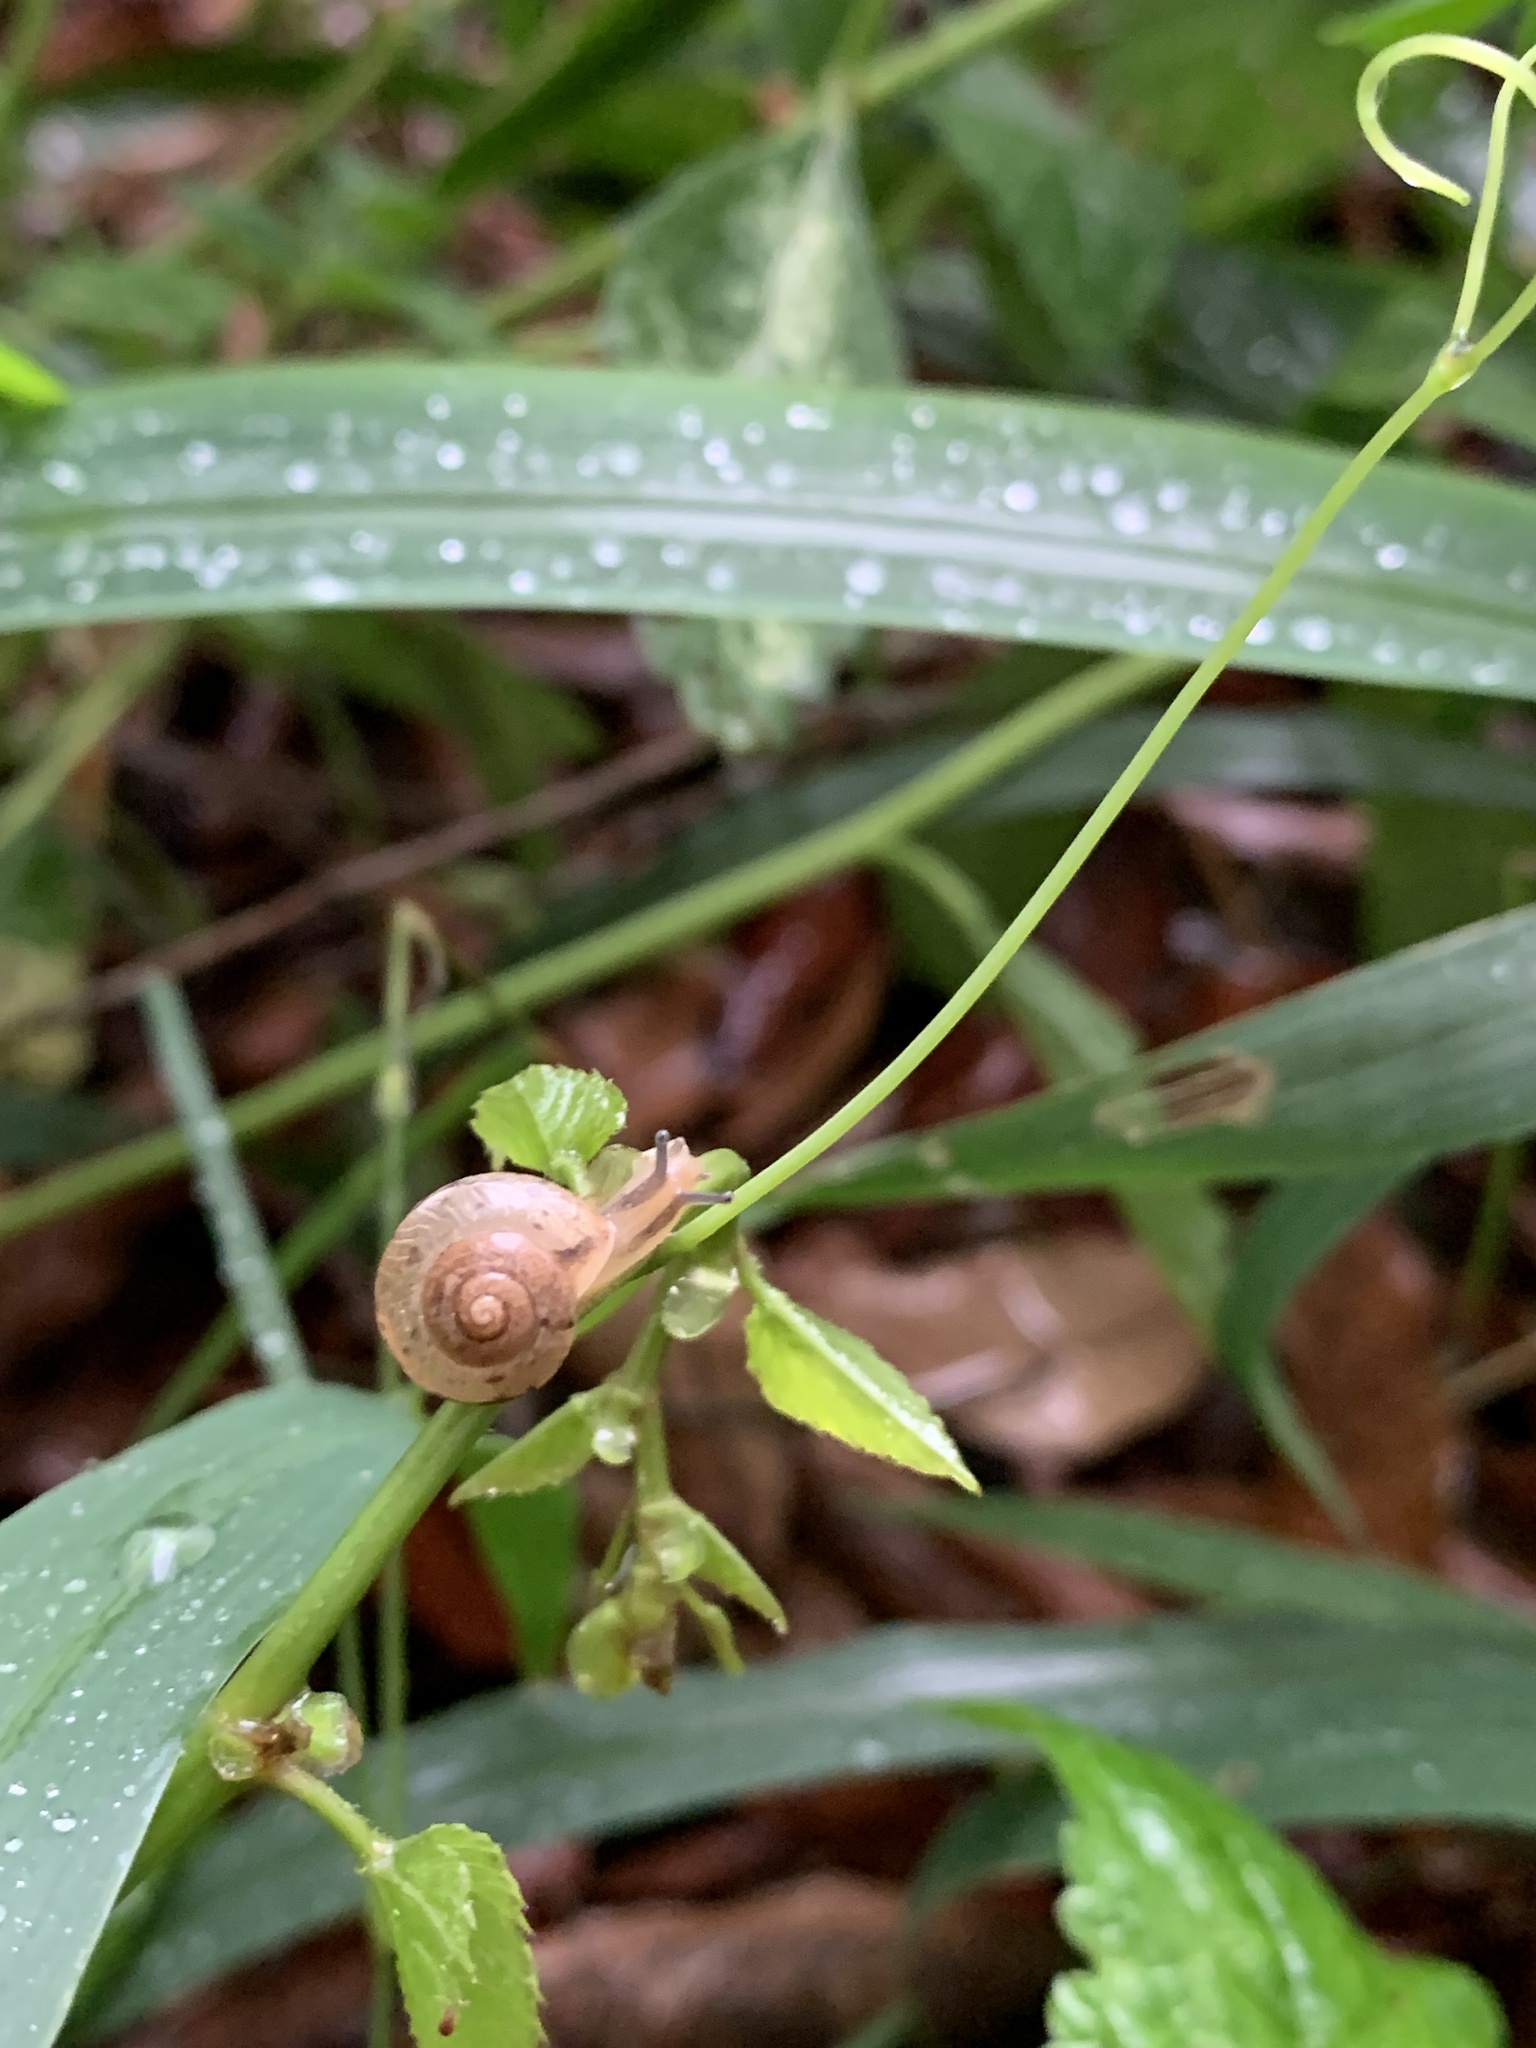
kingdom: Animalia
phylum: Mollusca
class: Gastropoda
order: Stylommatophora
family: Camaenidae
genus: Bradybaena
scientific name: Bradybaena similaris
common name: Asian trampsnail
